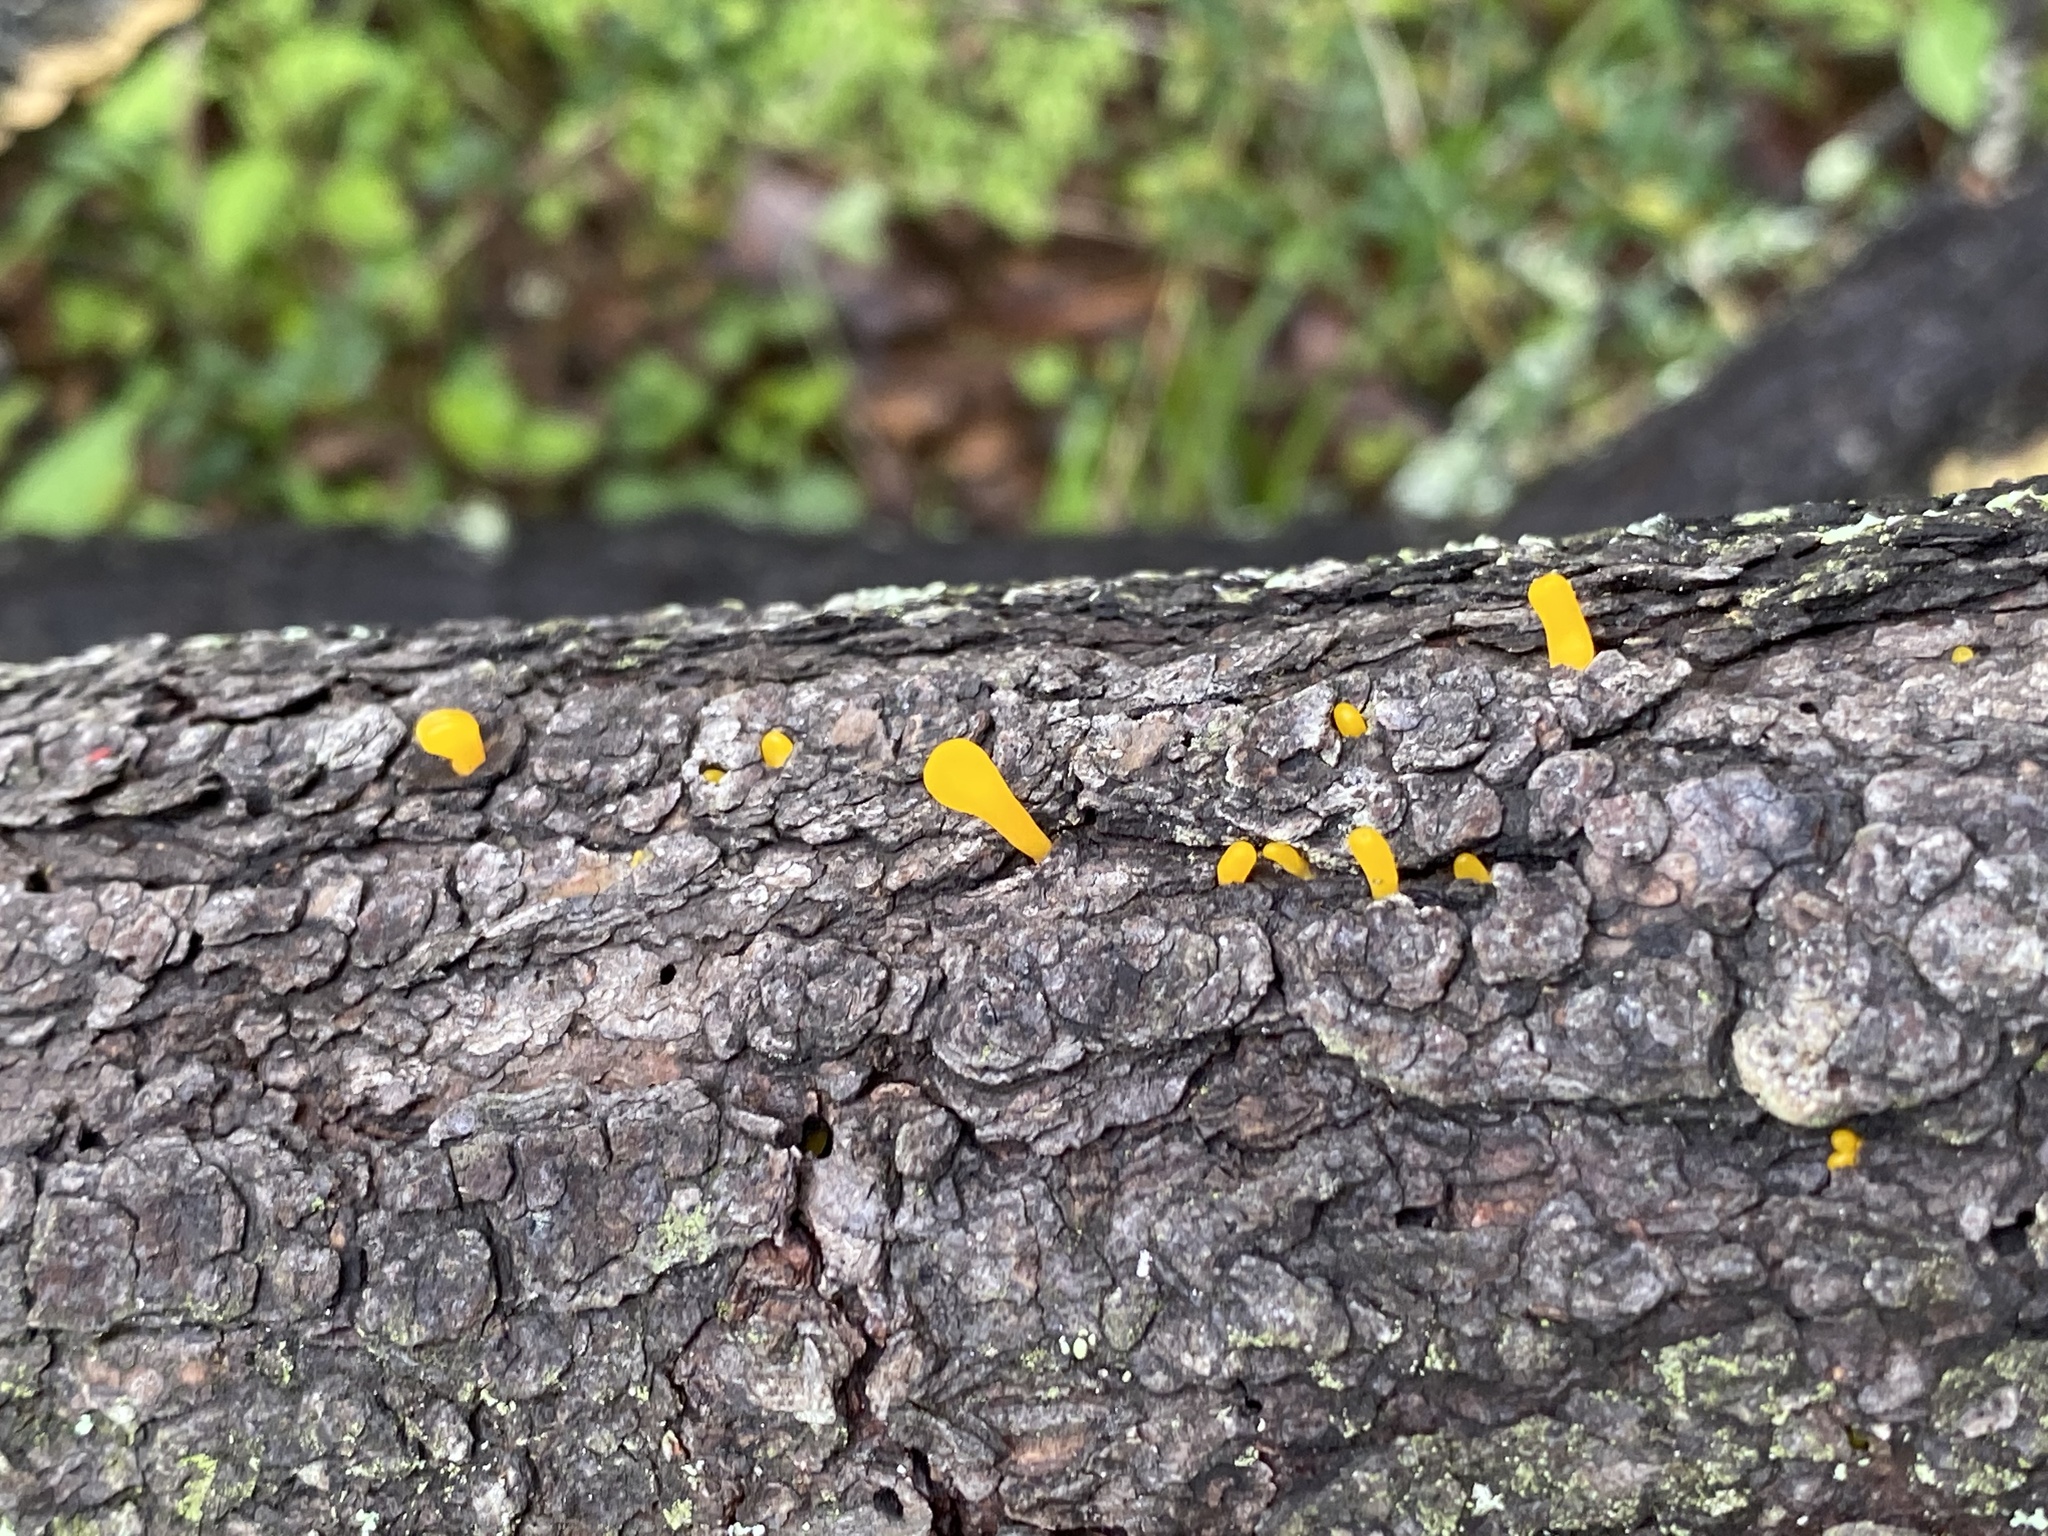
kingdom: Fungi
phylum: Basidiomycota
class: Dacrymycetes
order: Dacrymycetales
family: Dacrymycetaceae
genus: Dacrymyces
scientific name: Dacrymyces spathularius
